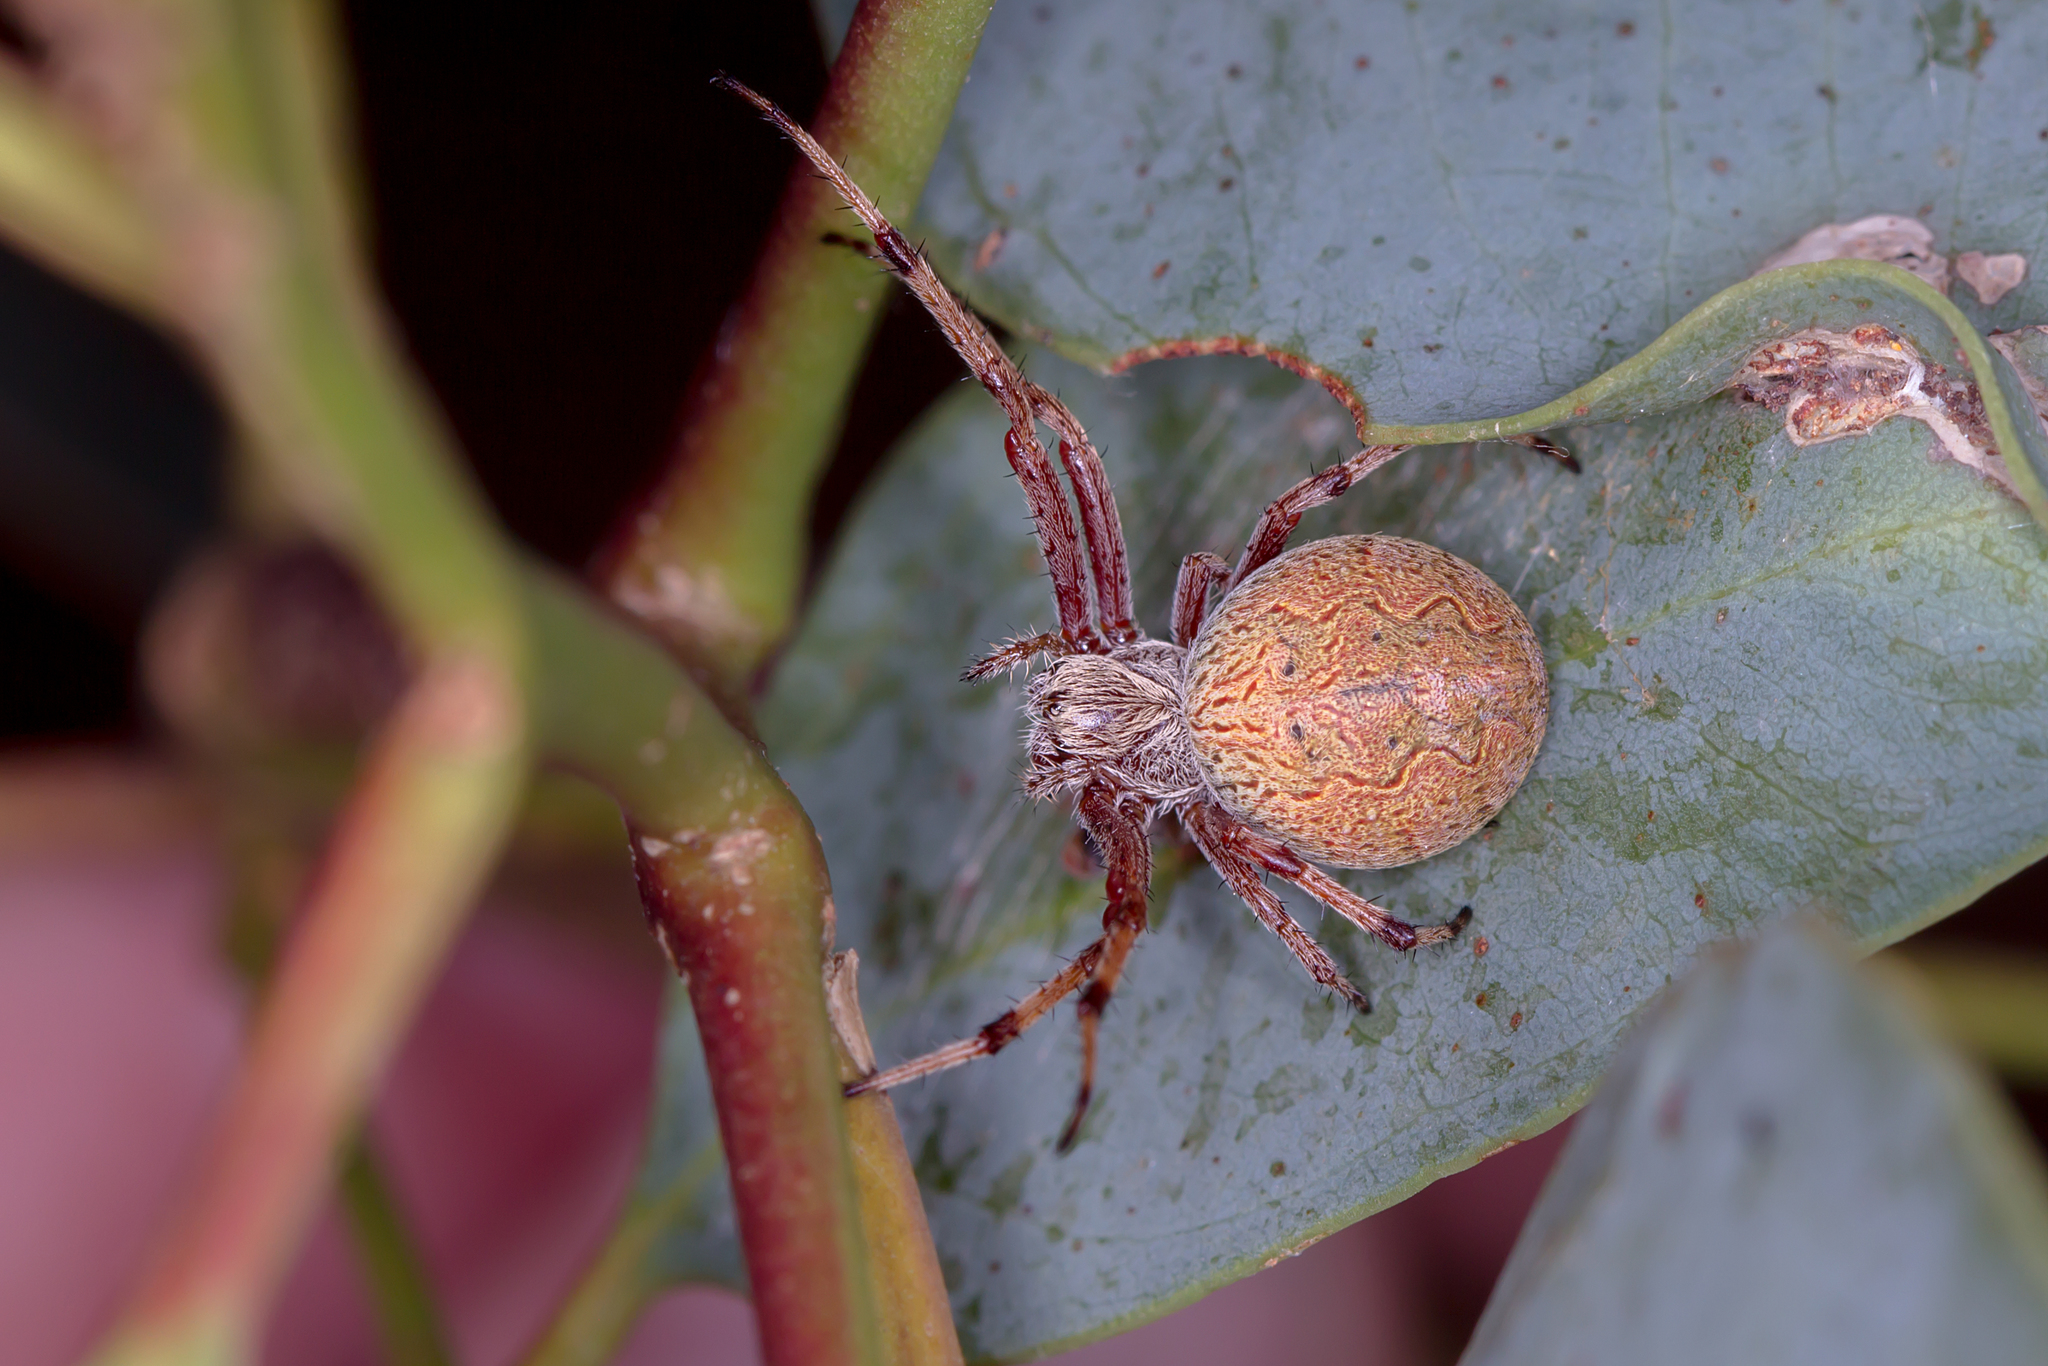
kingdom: Animalia
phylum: Arthropoda
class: Arachnida
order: Araneae
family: Araneidae
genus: Salsa
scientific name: Salsa fuliginata
